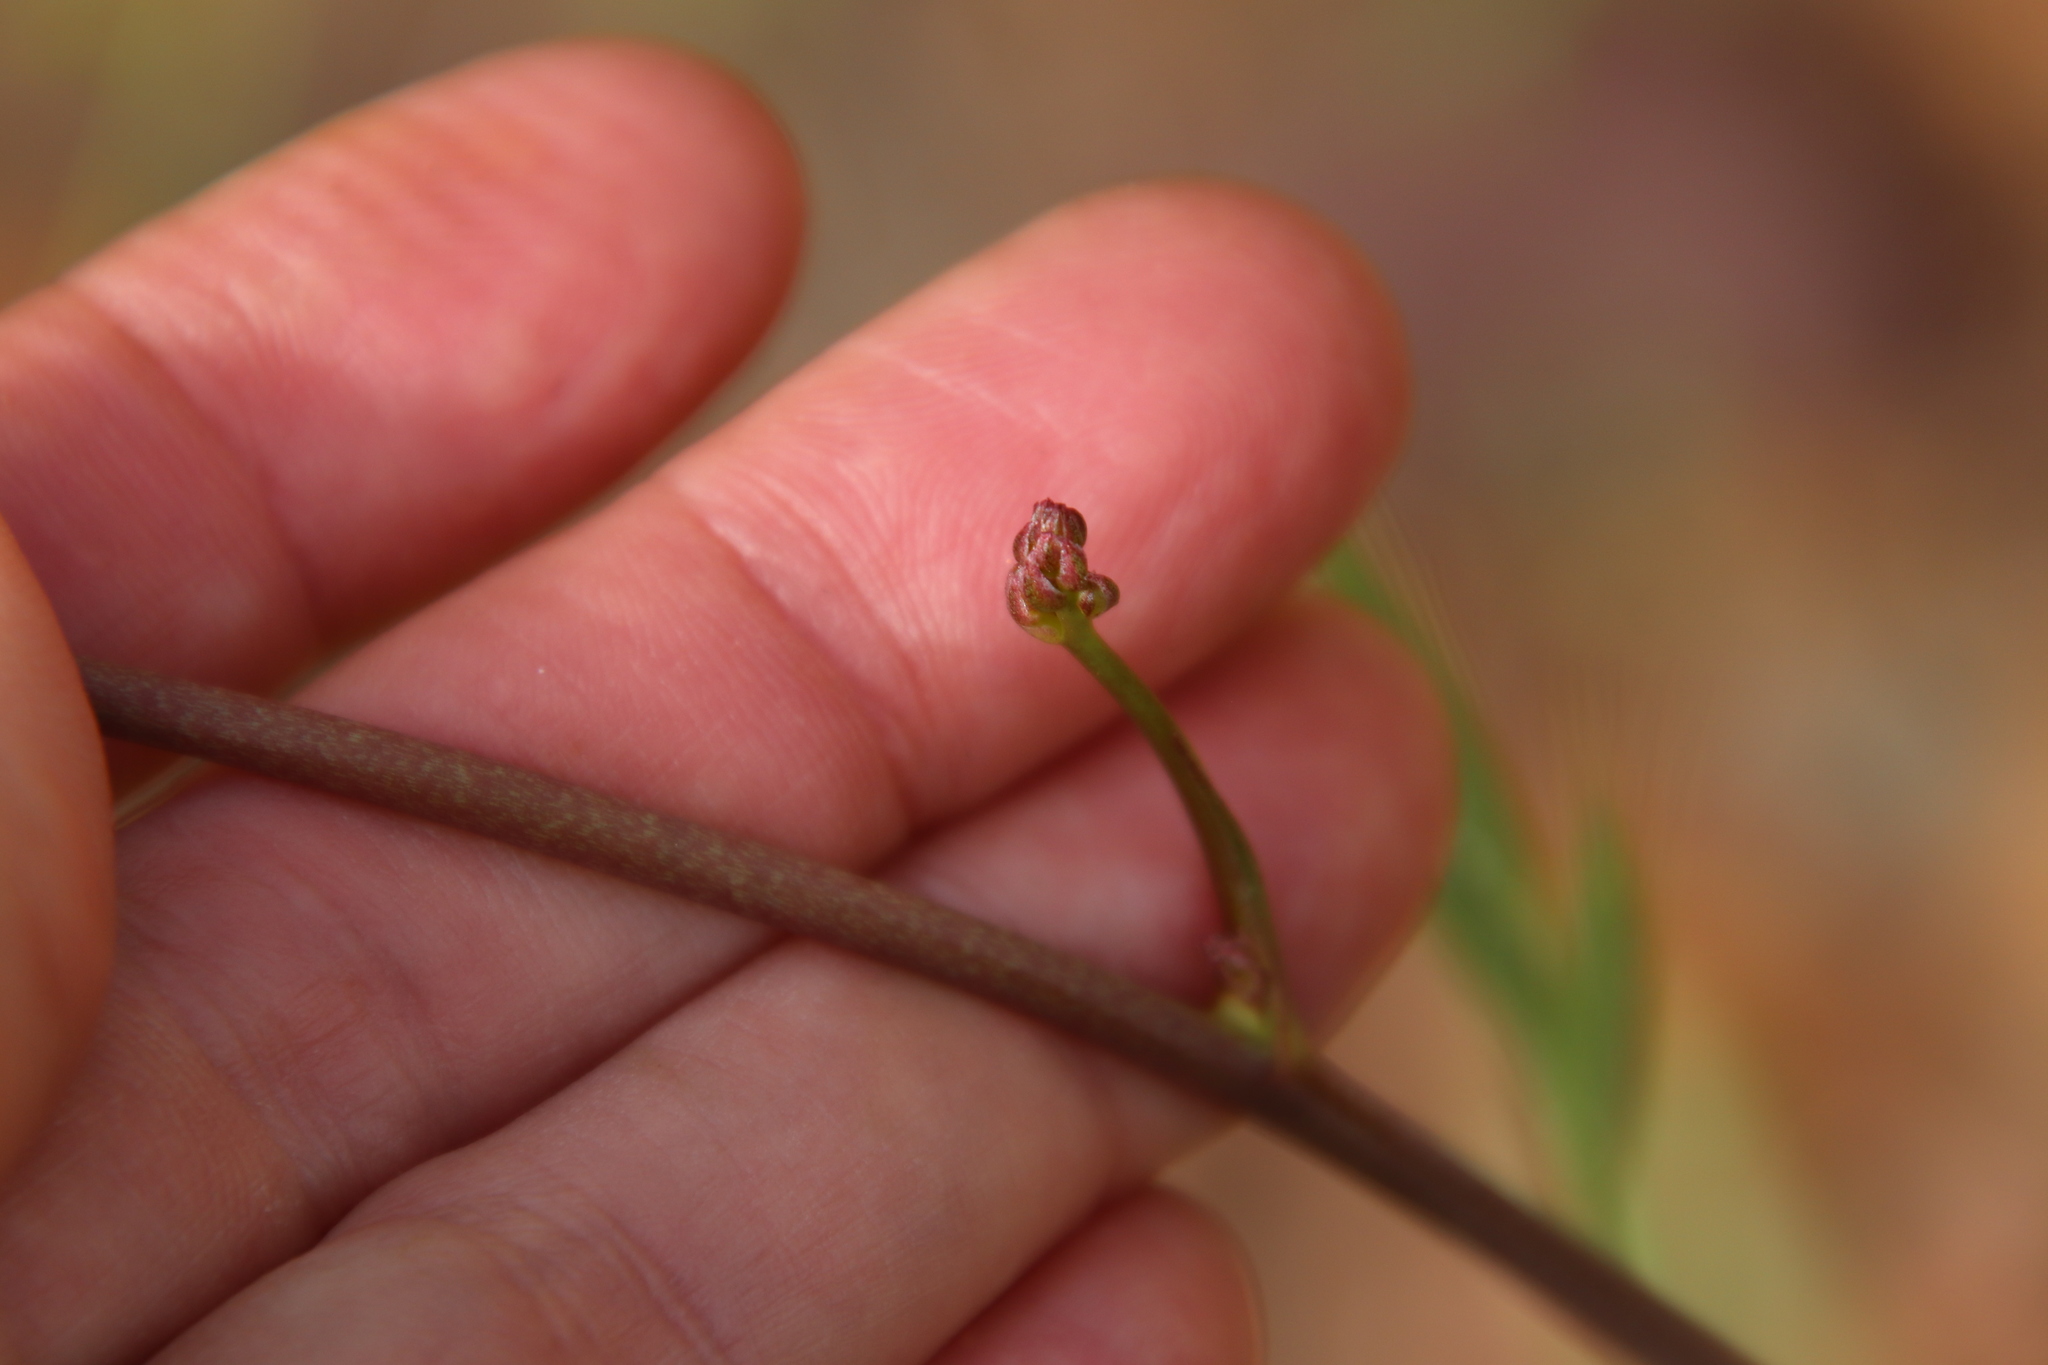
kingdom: Plantae
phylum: Tracheophyta
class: Liliopsida
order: Asparagales
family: Asparagaceae
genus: Hooveria
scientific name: Hooveria parviflora
